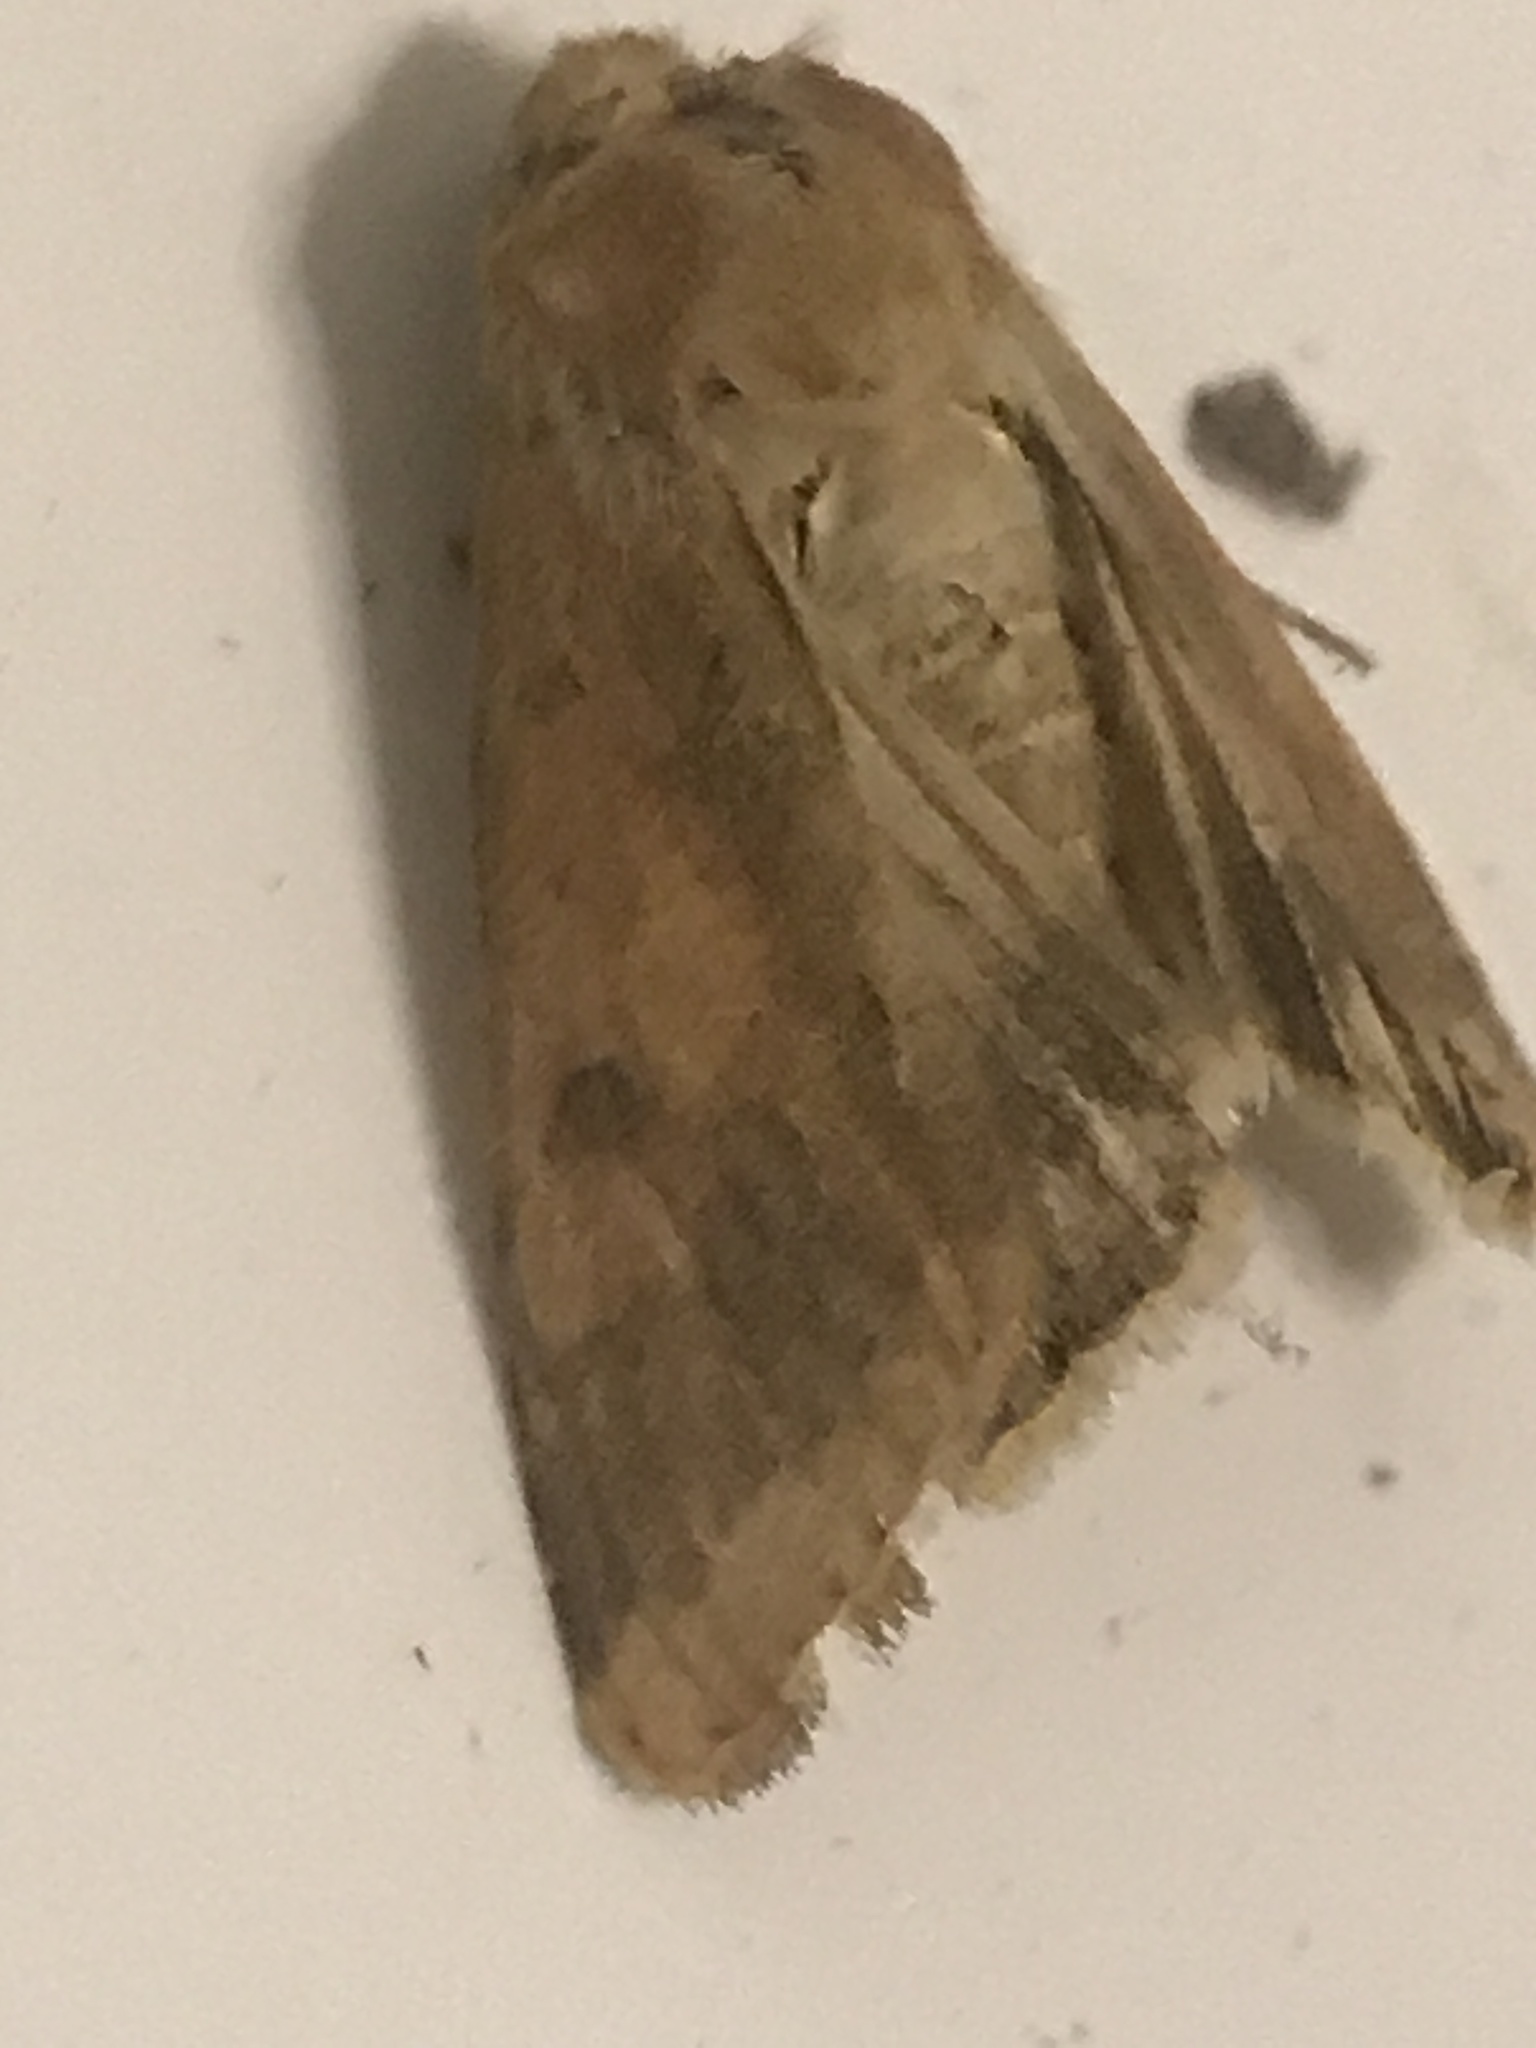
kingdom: Animalia
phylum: Arthropoda
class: Insecta
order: Lepidoptera
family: Noctuidae
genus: Helicoverpa
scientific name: Helicoverpa zea
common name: Bollworm
